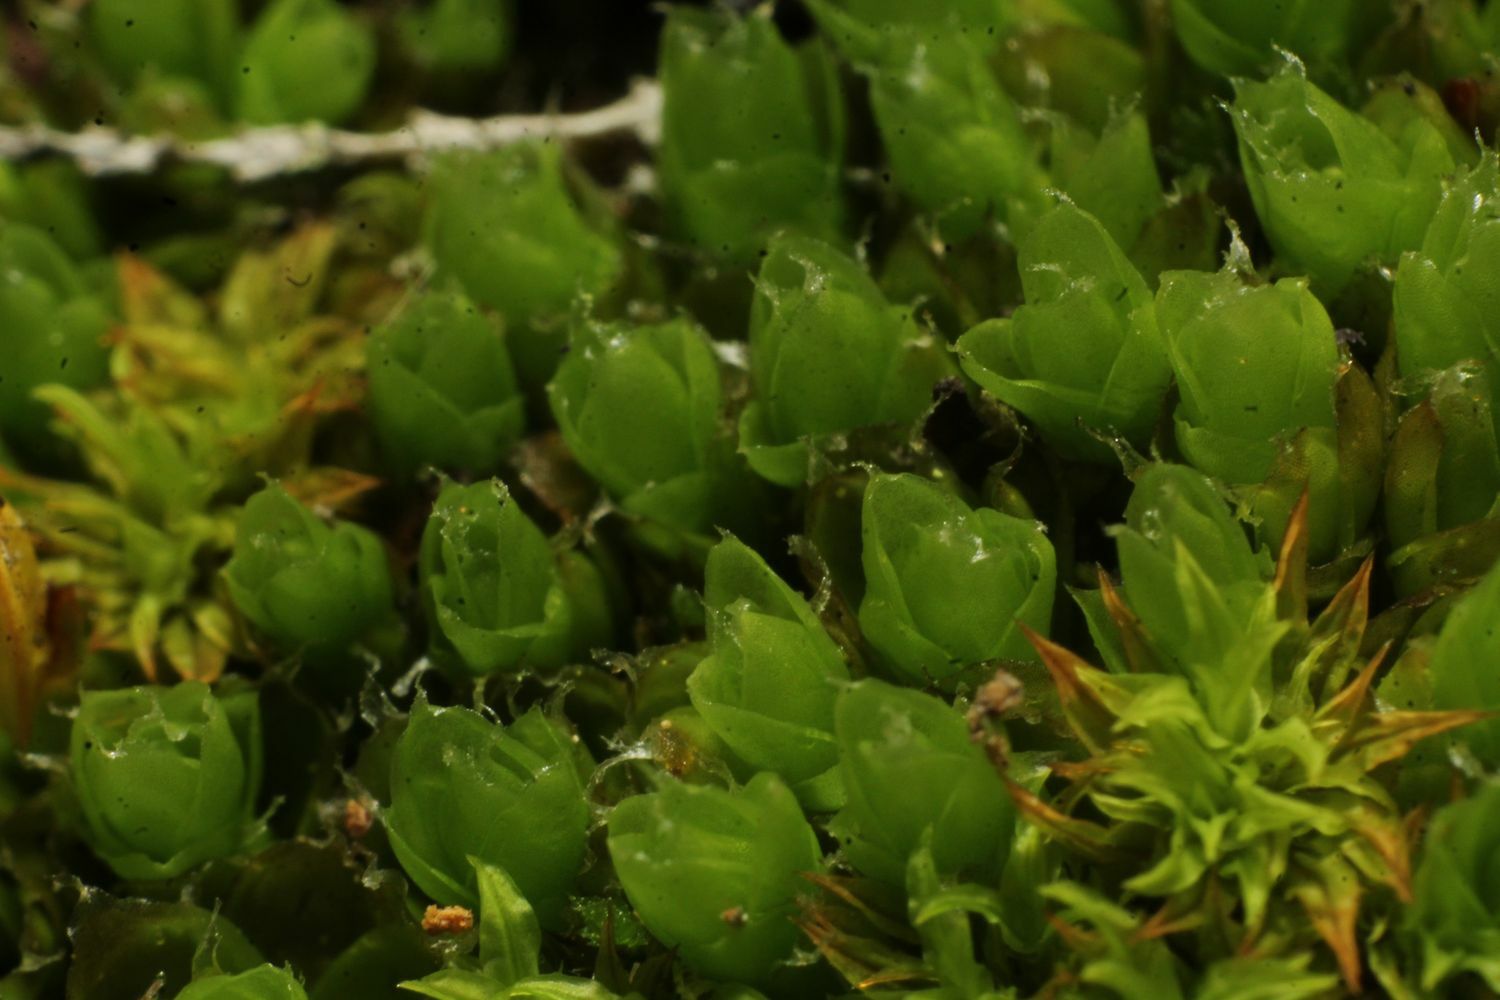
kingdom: Plantae
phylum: Bryophyta
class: Bryopsida
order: Pottiales
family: Pleurophascaceae
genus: Pleurophascum
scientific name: Pleurophascum occidentale
